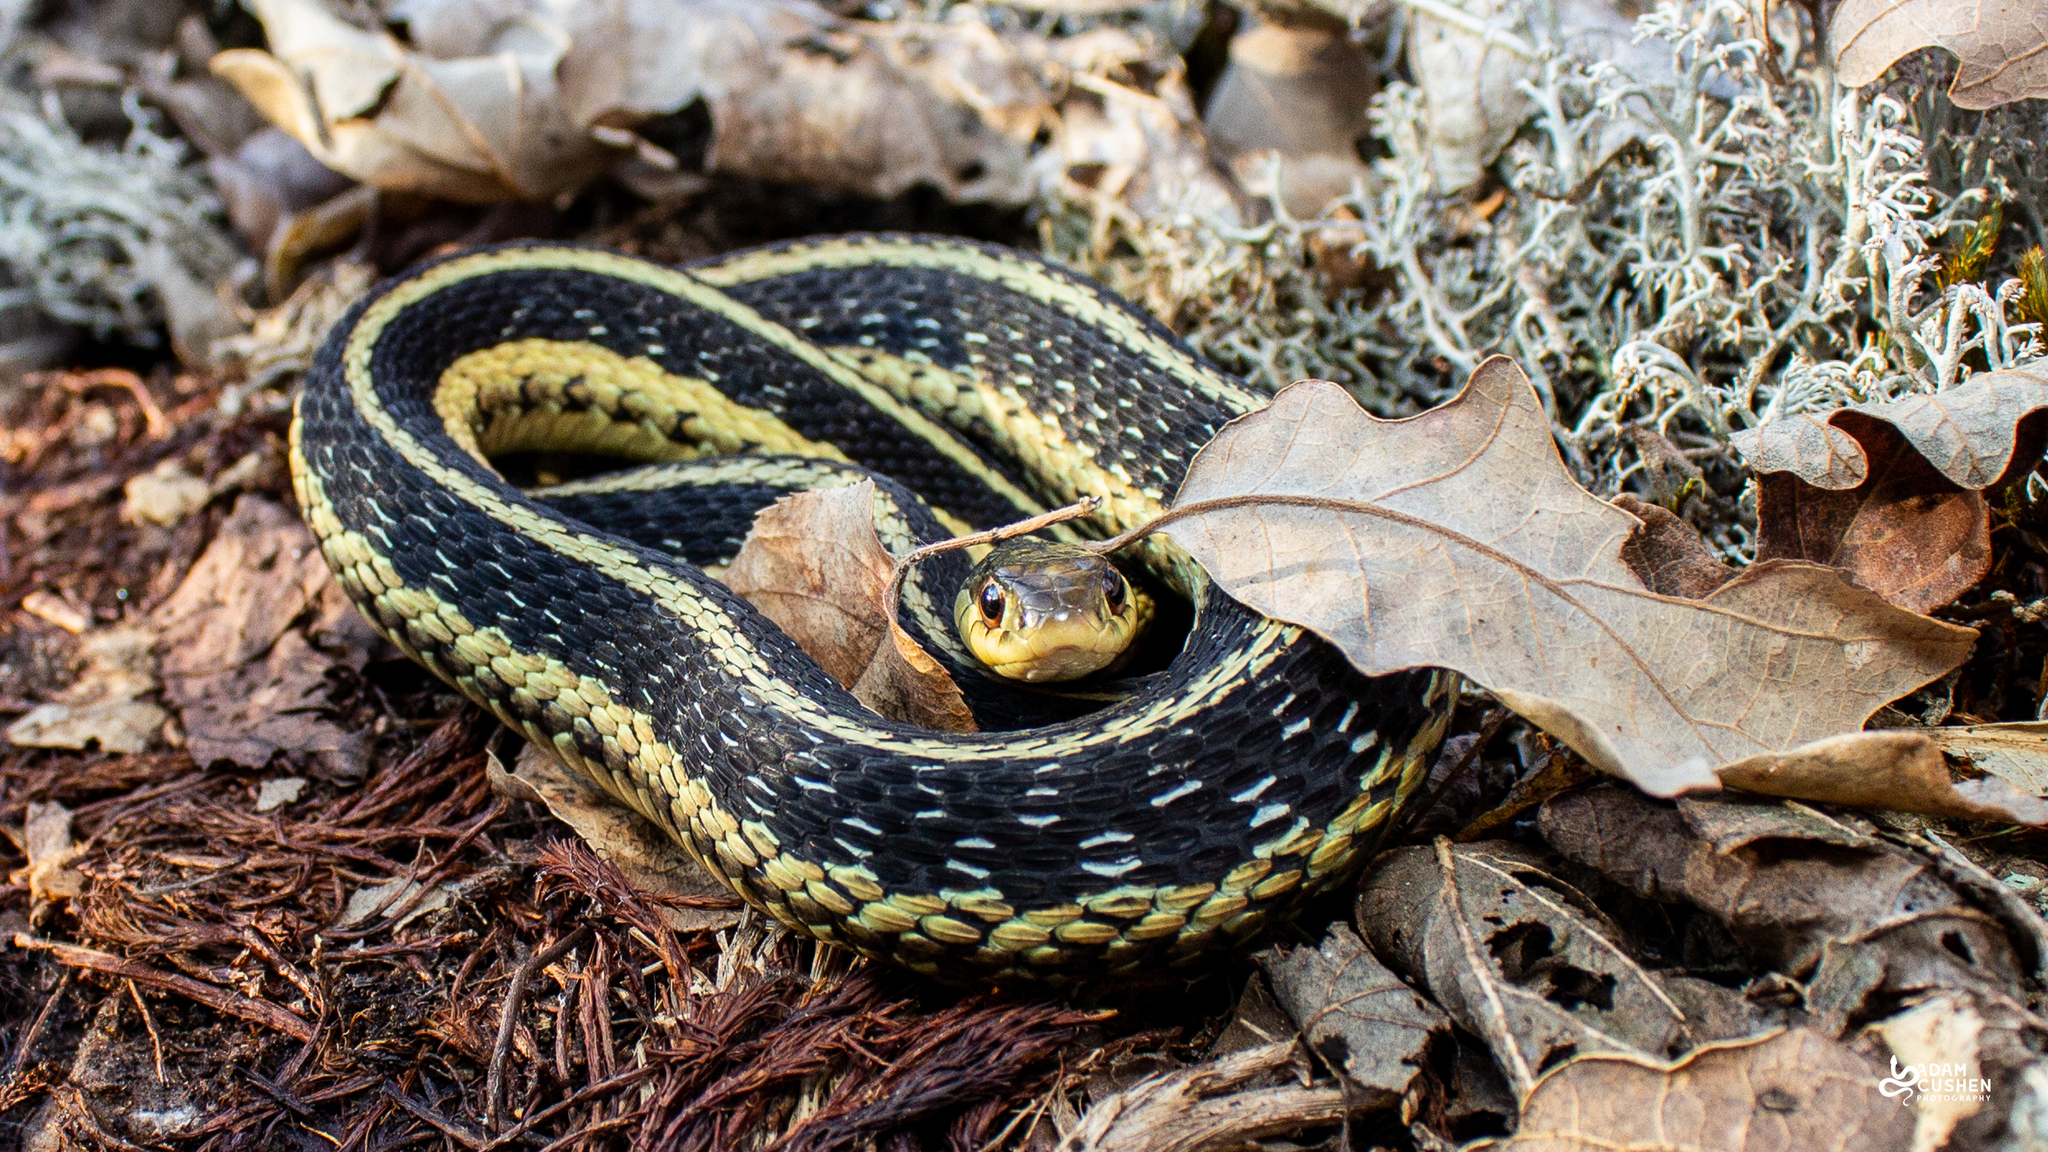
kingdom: Animalia
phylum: Chordata
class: Squamata
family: Colubridae
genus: Thamnophis
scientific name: Thamnophis sirtalis
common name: Common garter snake
